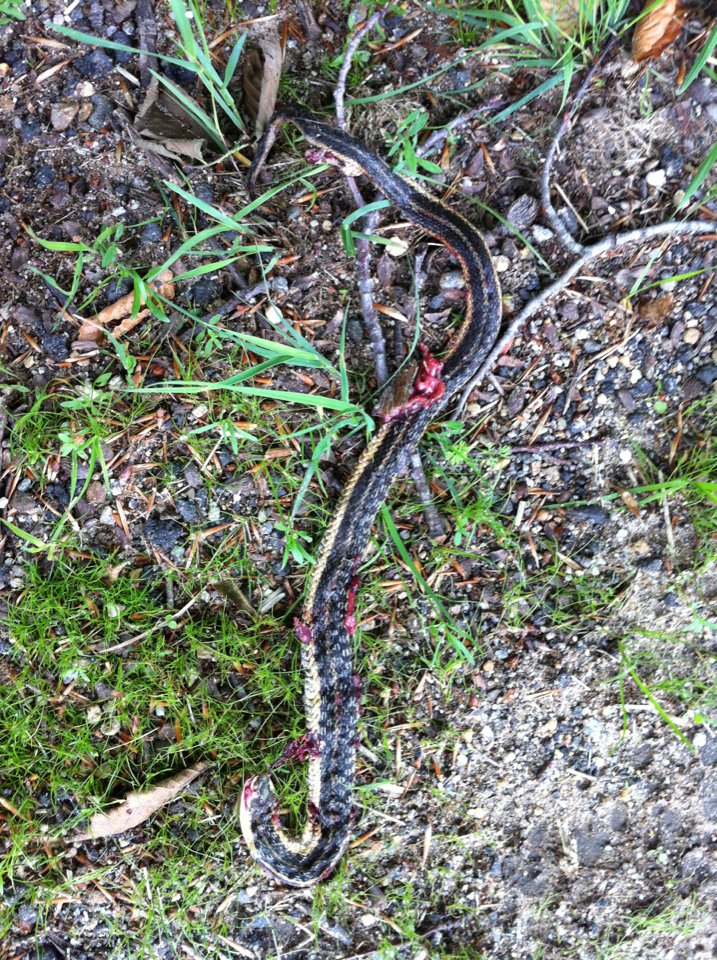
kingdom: Animalia
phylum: Chordata
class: Squamata
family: Colubridae
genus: Thamnophis
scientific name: Thamnophis sirtalis
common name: Common garter snake
